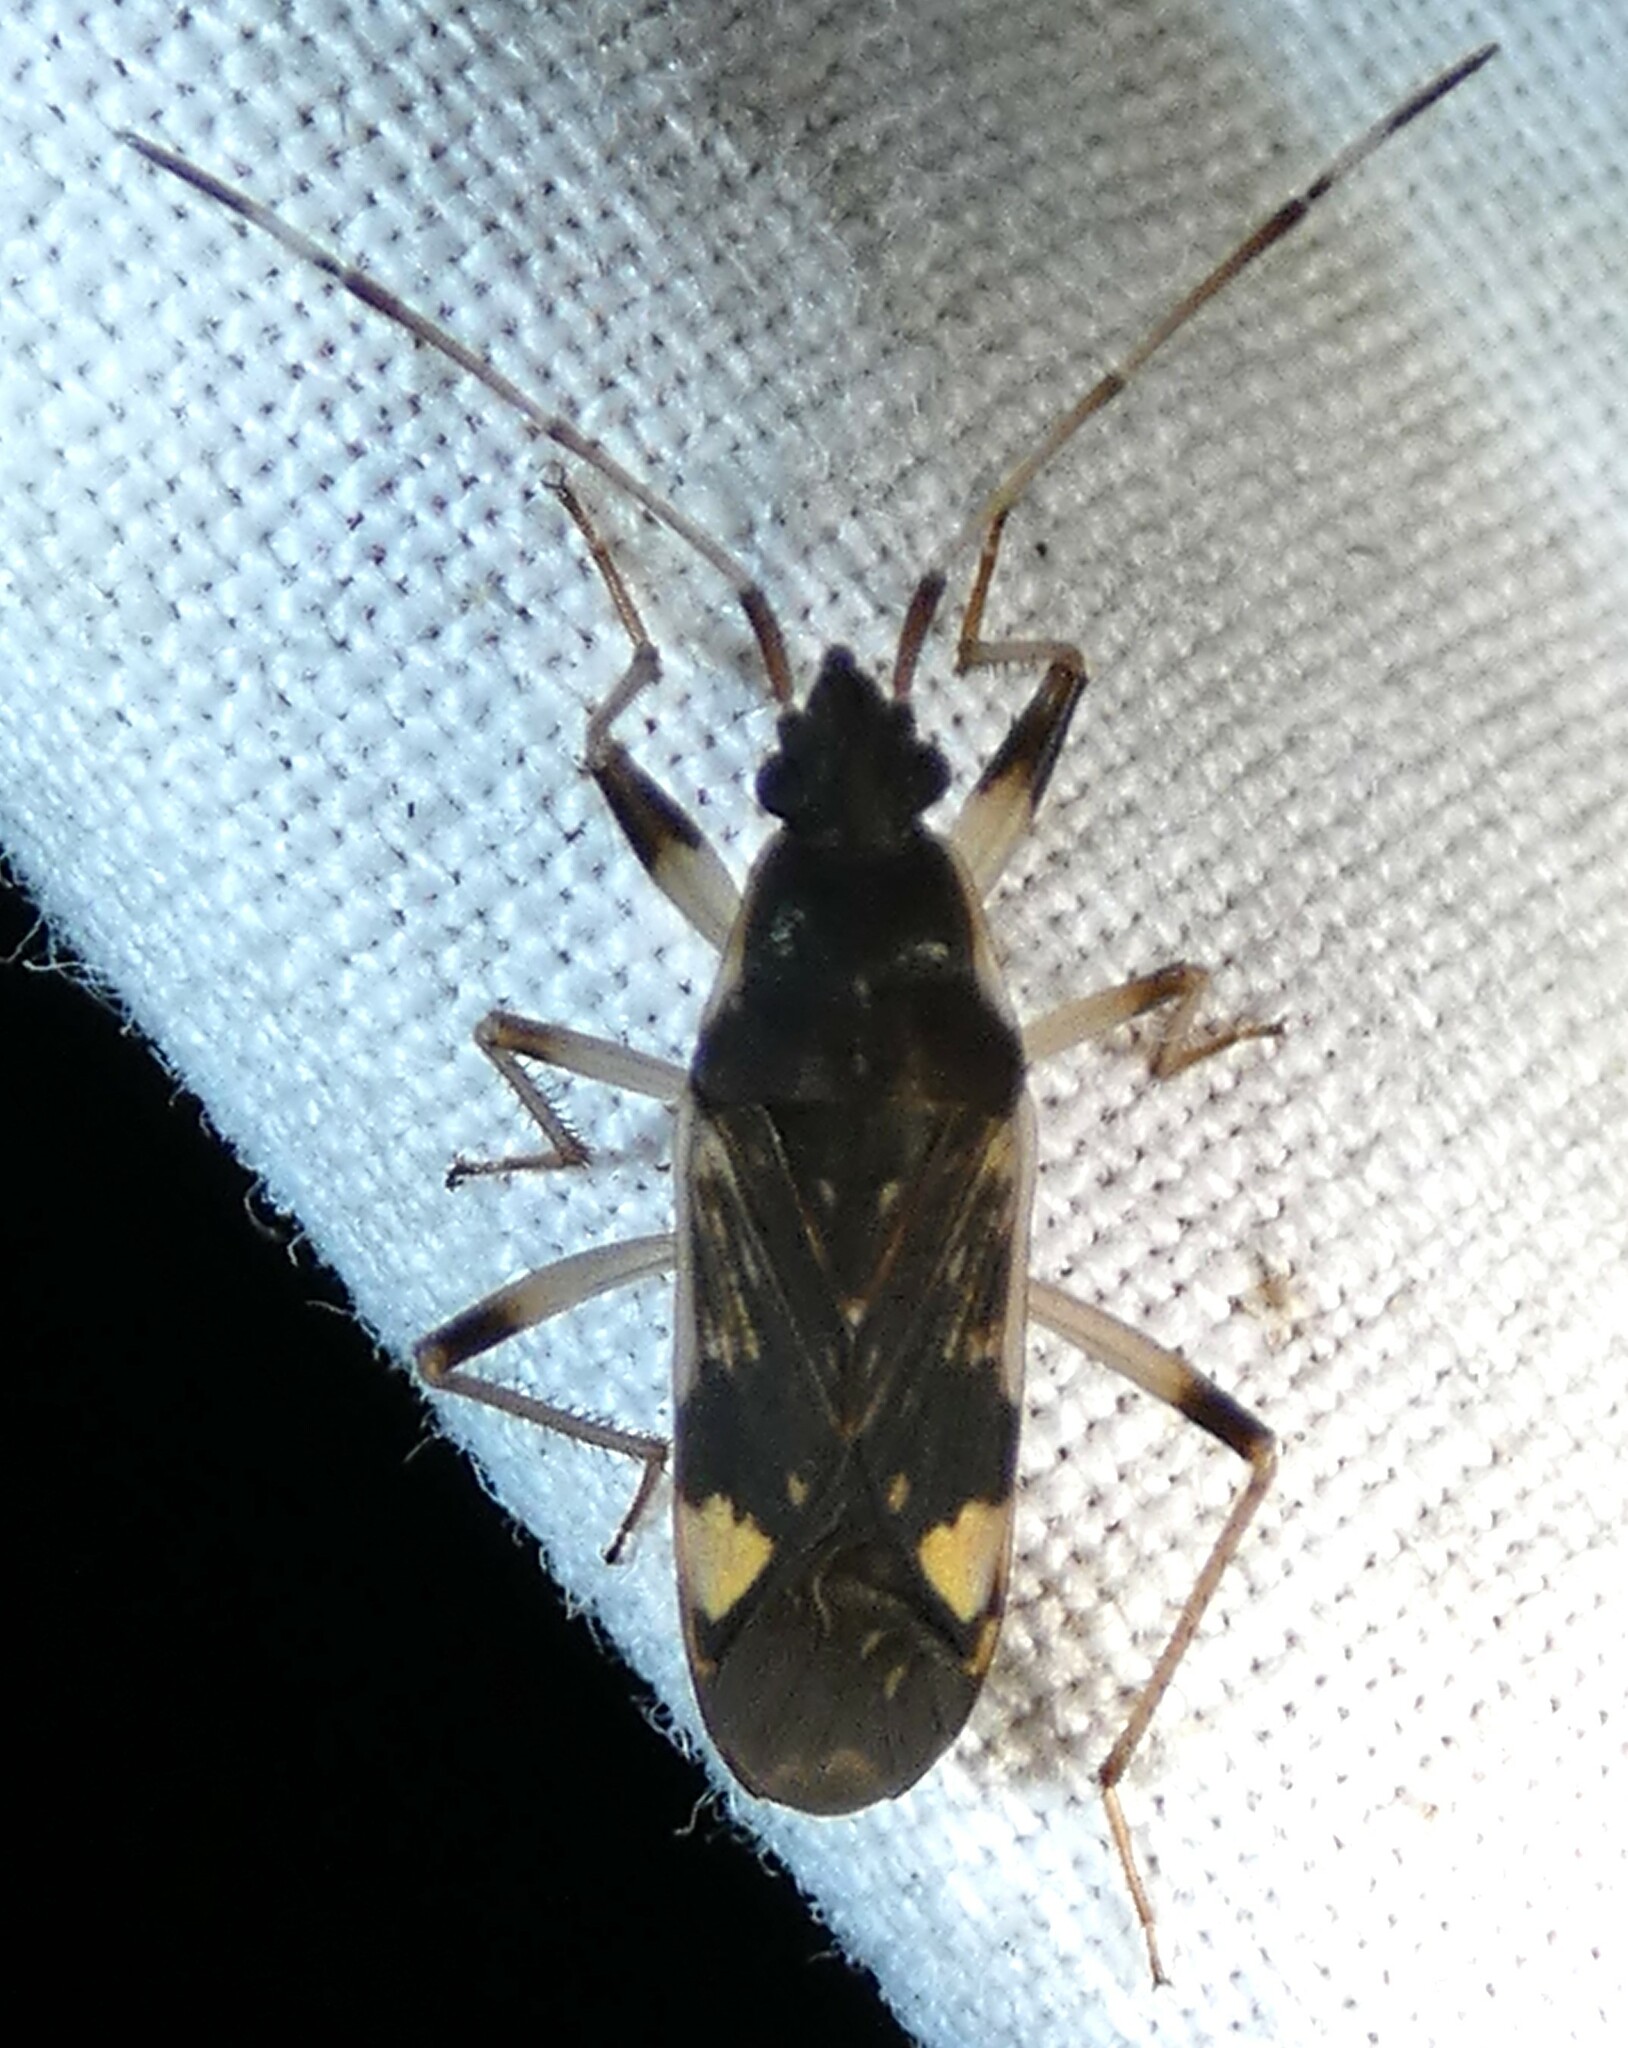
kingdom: Animalia
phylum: Arthropoda
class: Insecta
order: Hemiptera
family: Rhyparochromidae
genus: Dieuches
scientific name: Dieuches armatipes
